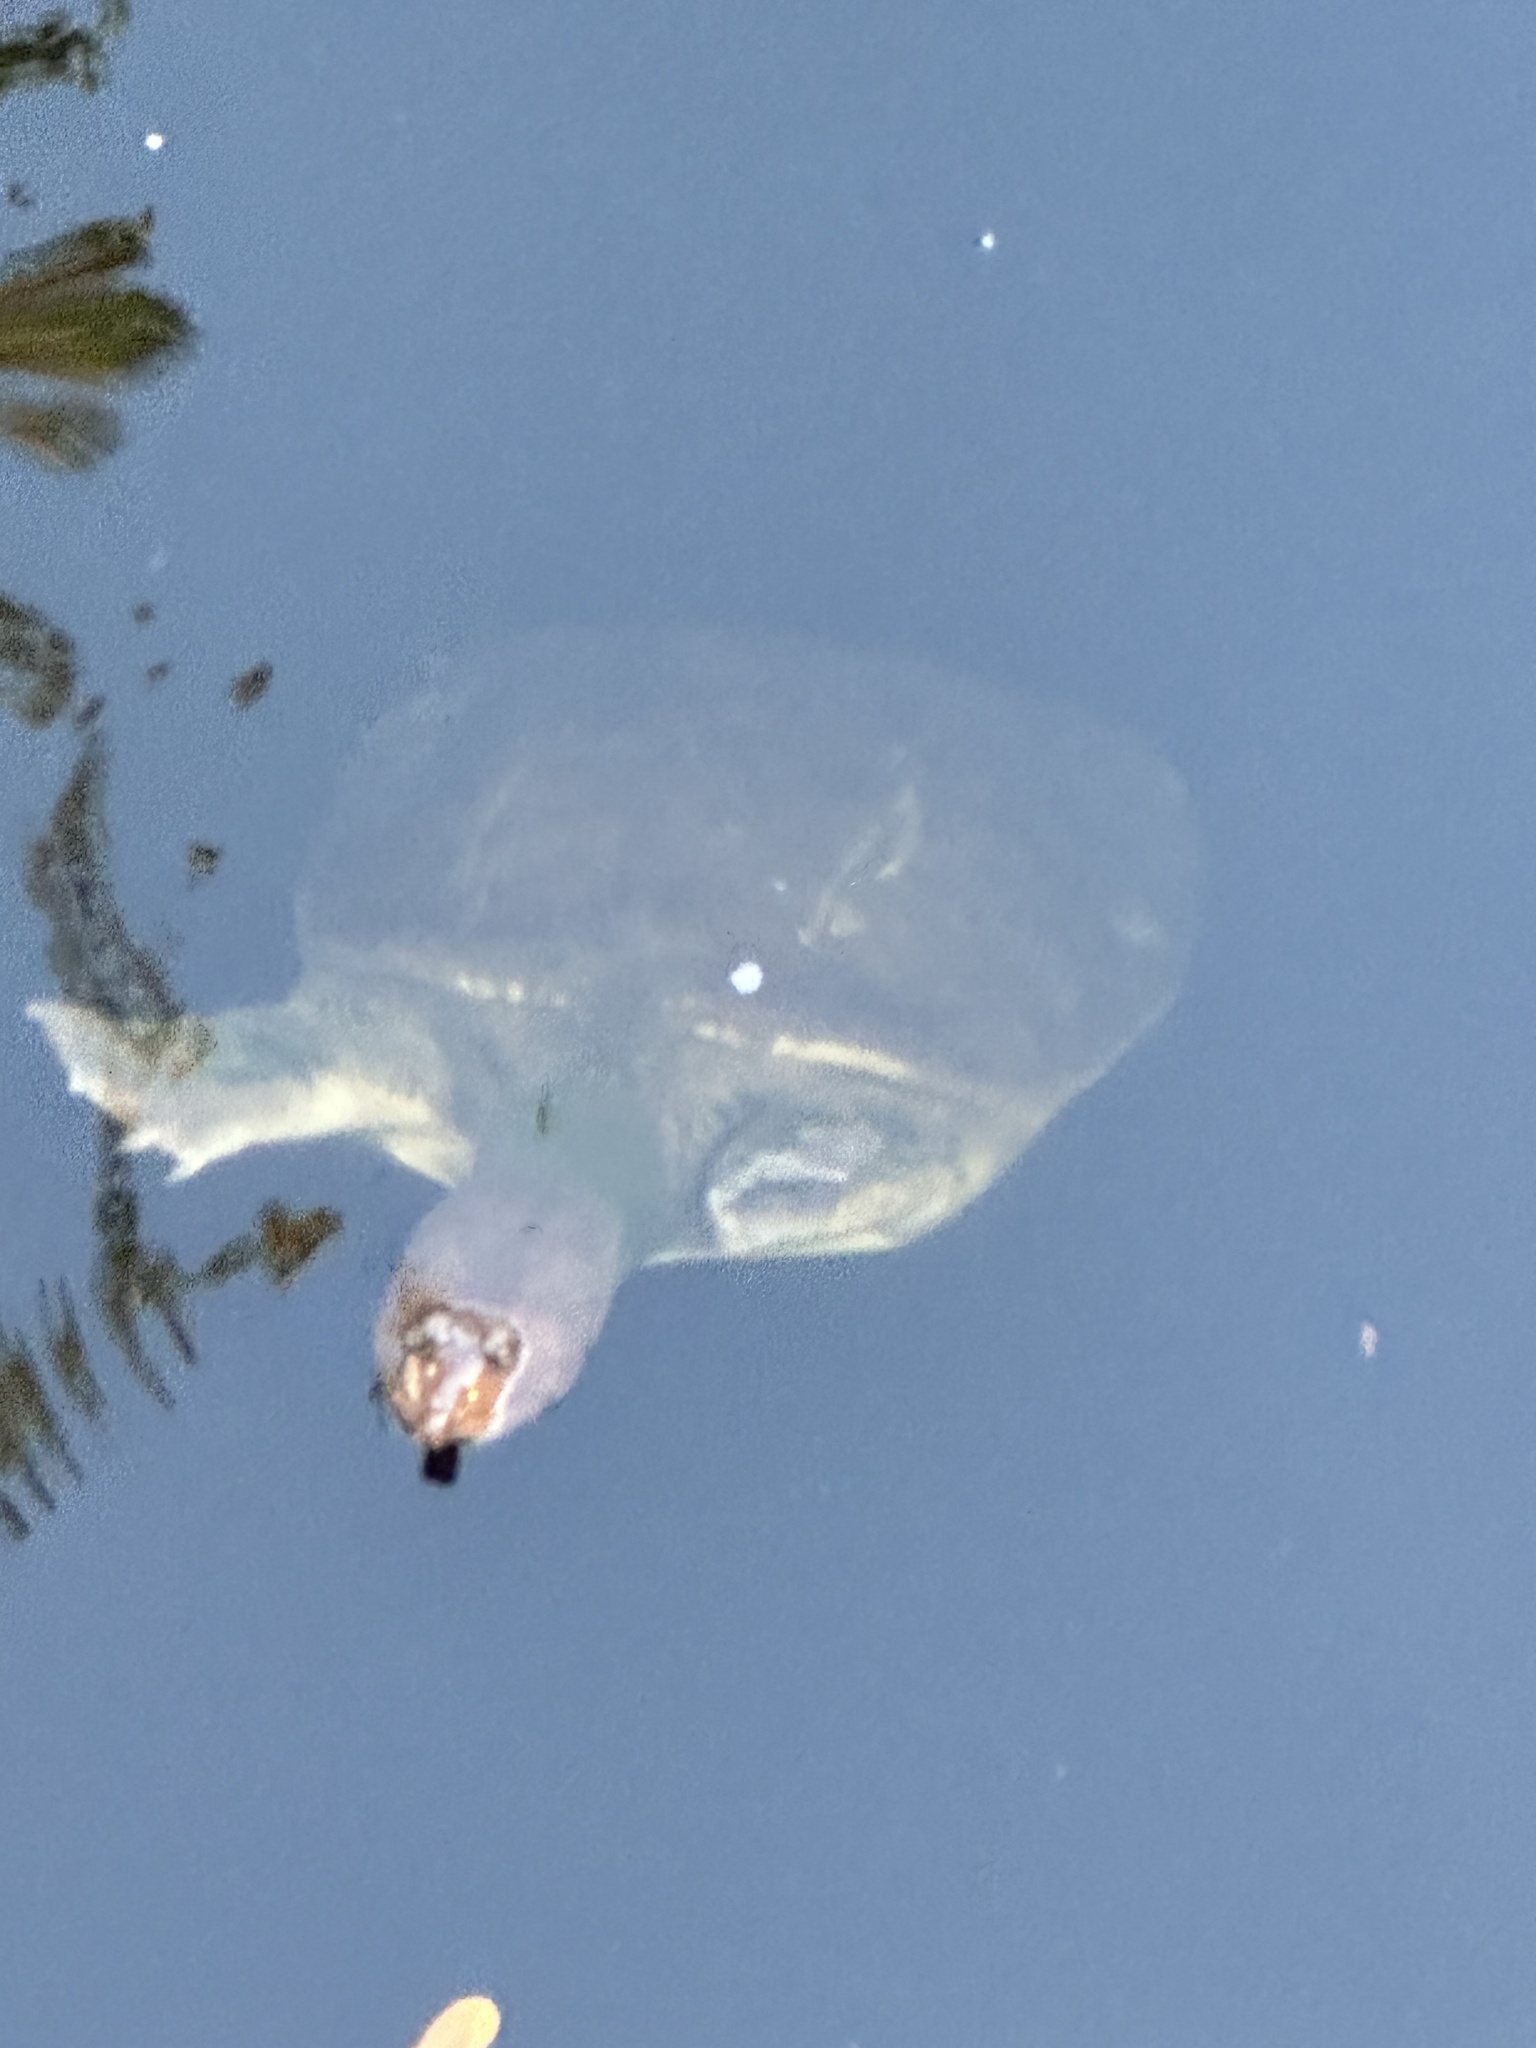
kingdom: Animalia
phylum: Chordata
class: Testudines
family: Trionychidae
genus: Apalone
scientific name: Apalone ferox
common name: Florida softshell turtle
